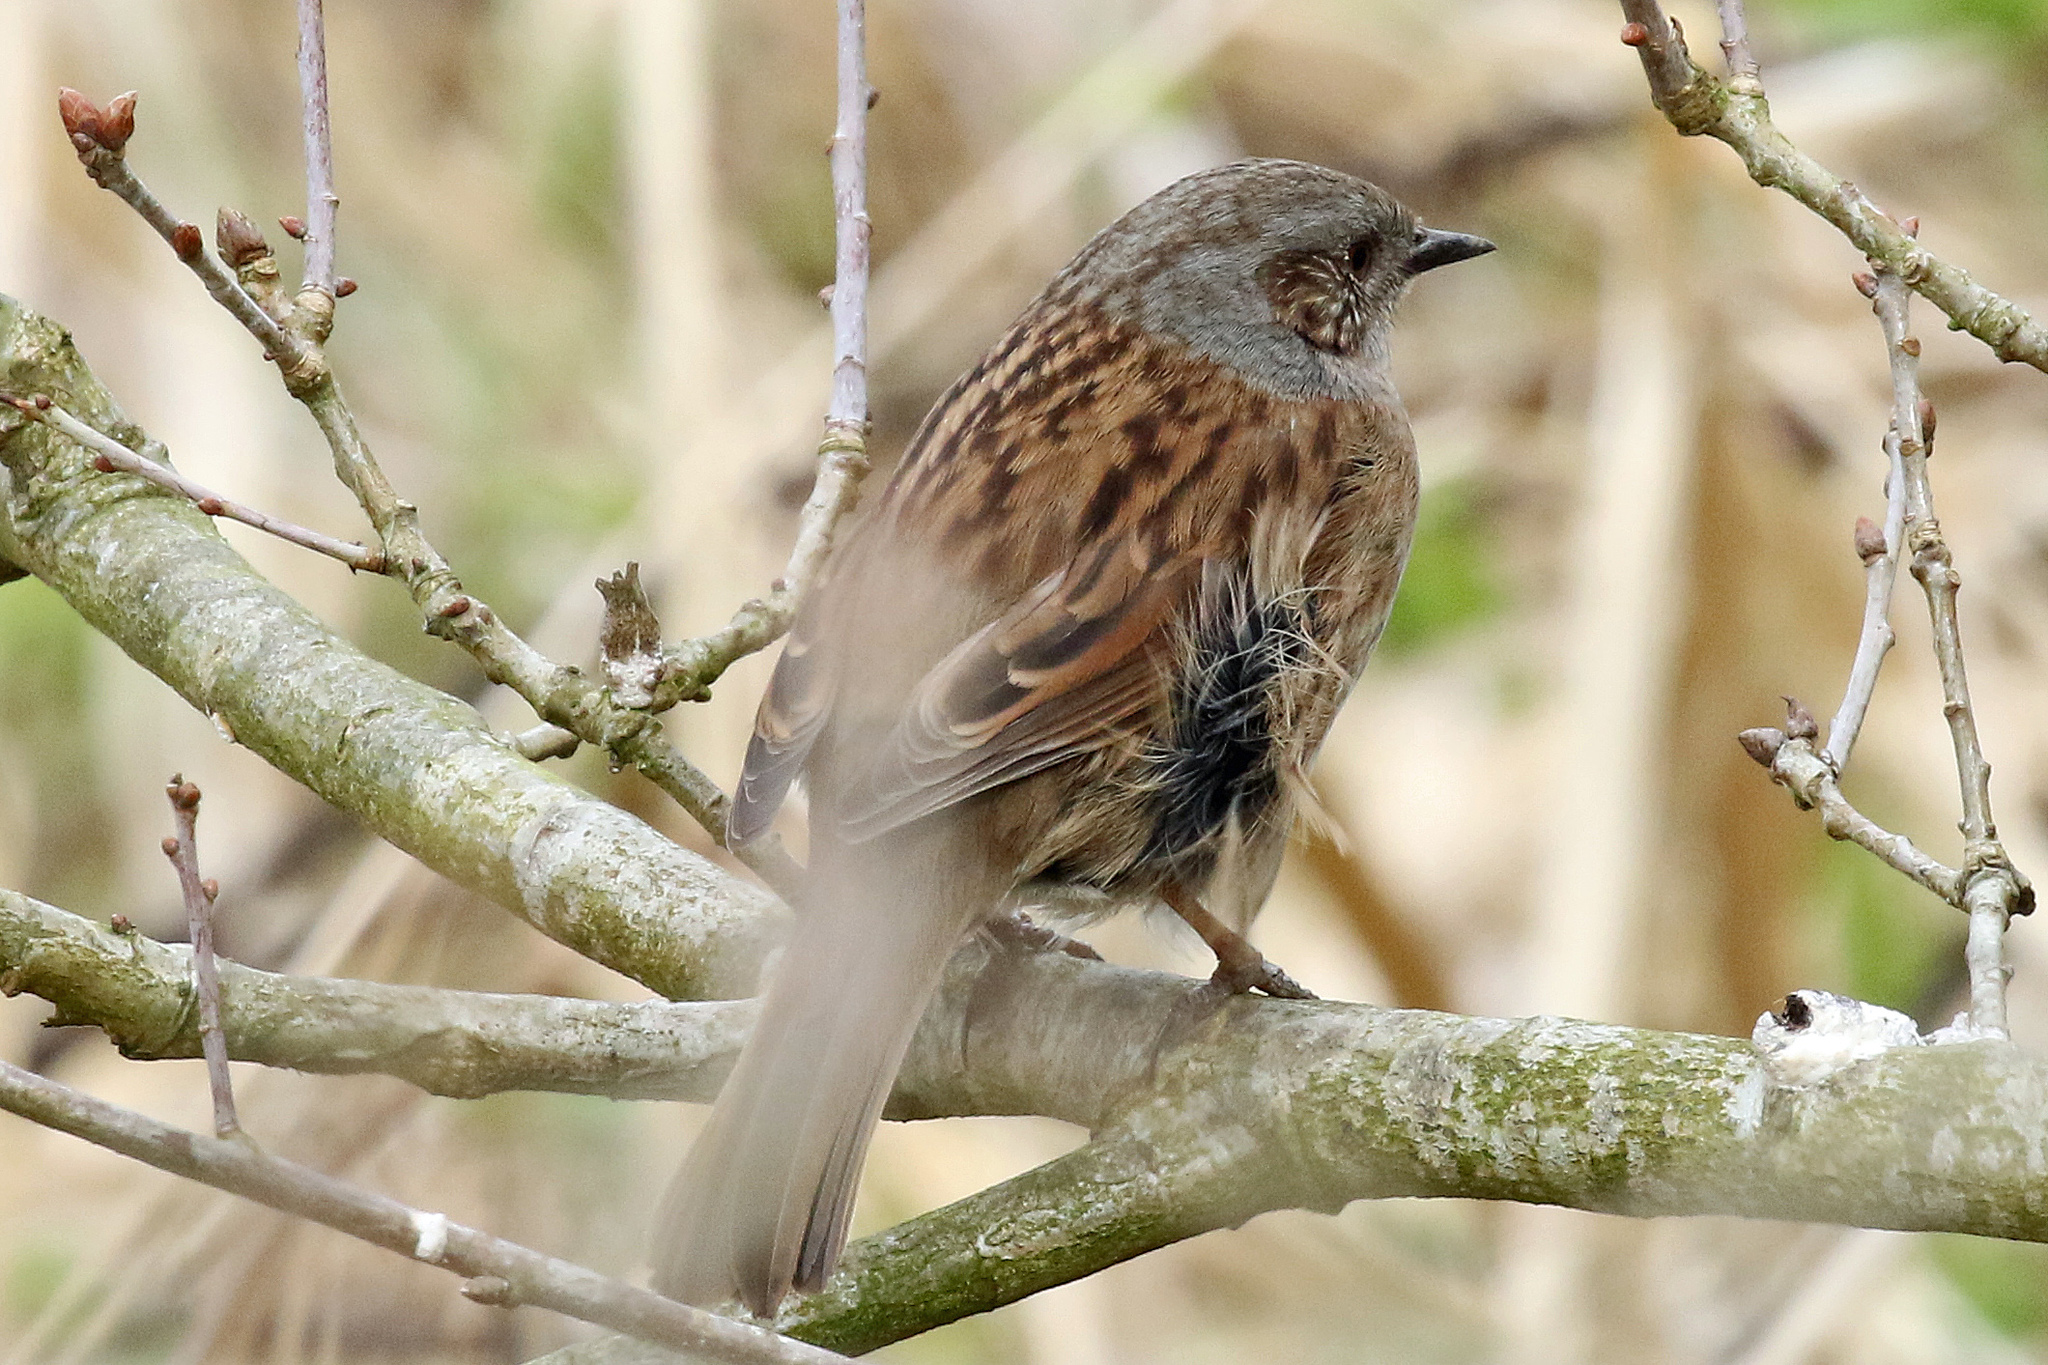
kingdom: Animalia
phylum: Chordata
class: Aves
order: Passeriformes
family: Prunellidae
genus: Prunella
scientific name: Prunella modularis
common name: Dunnock
